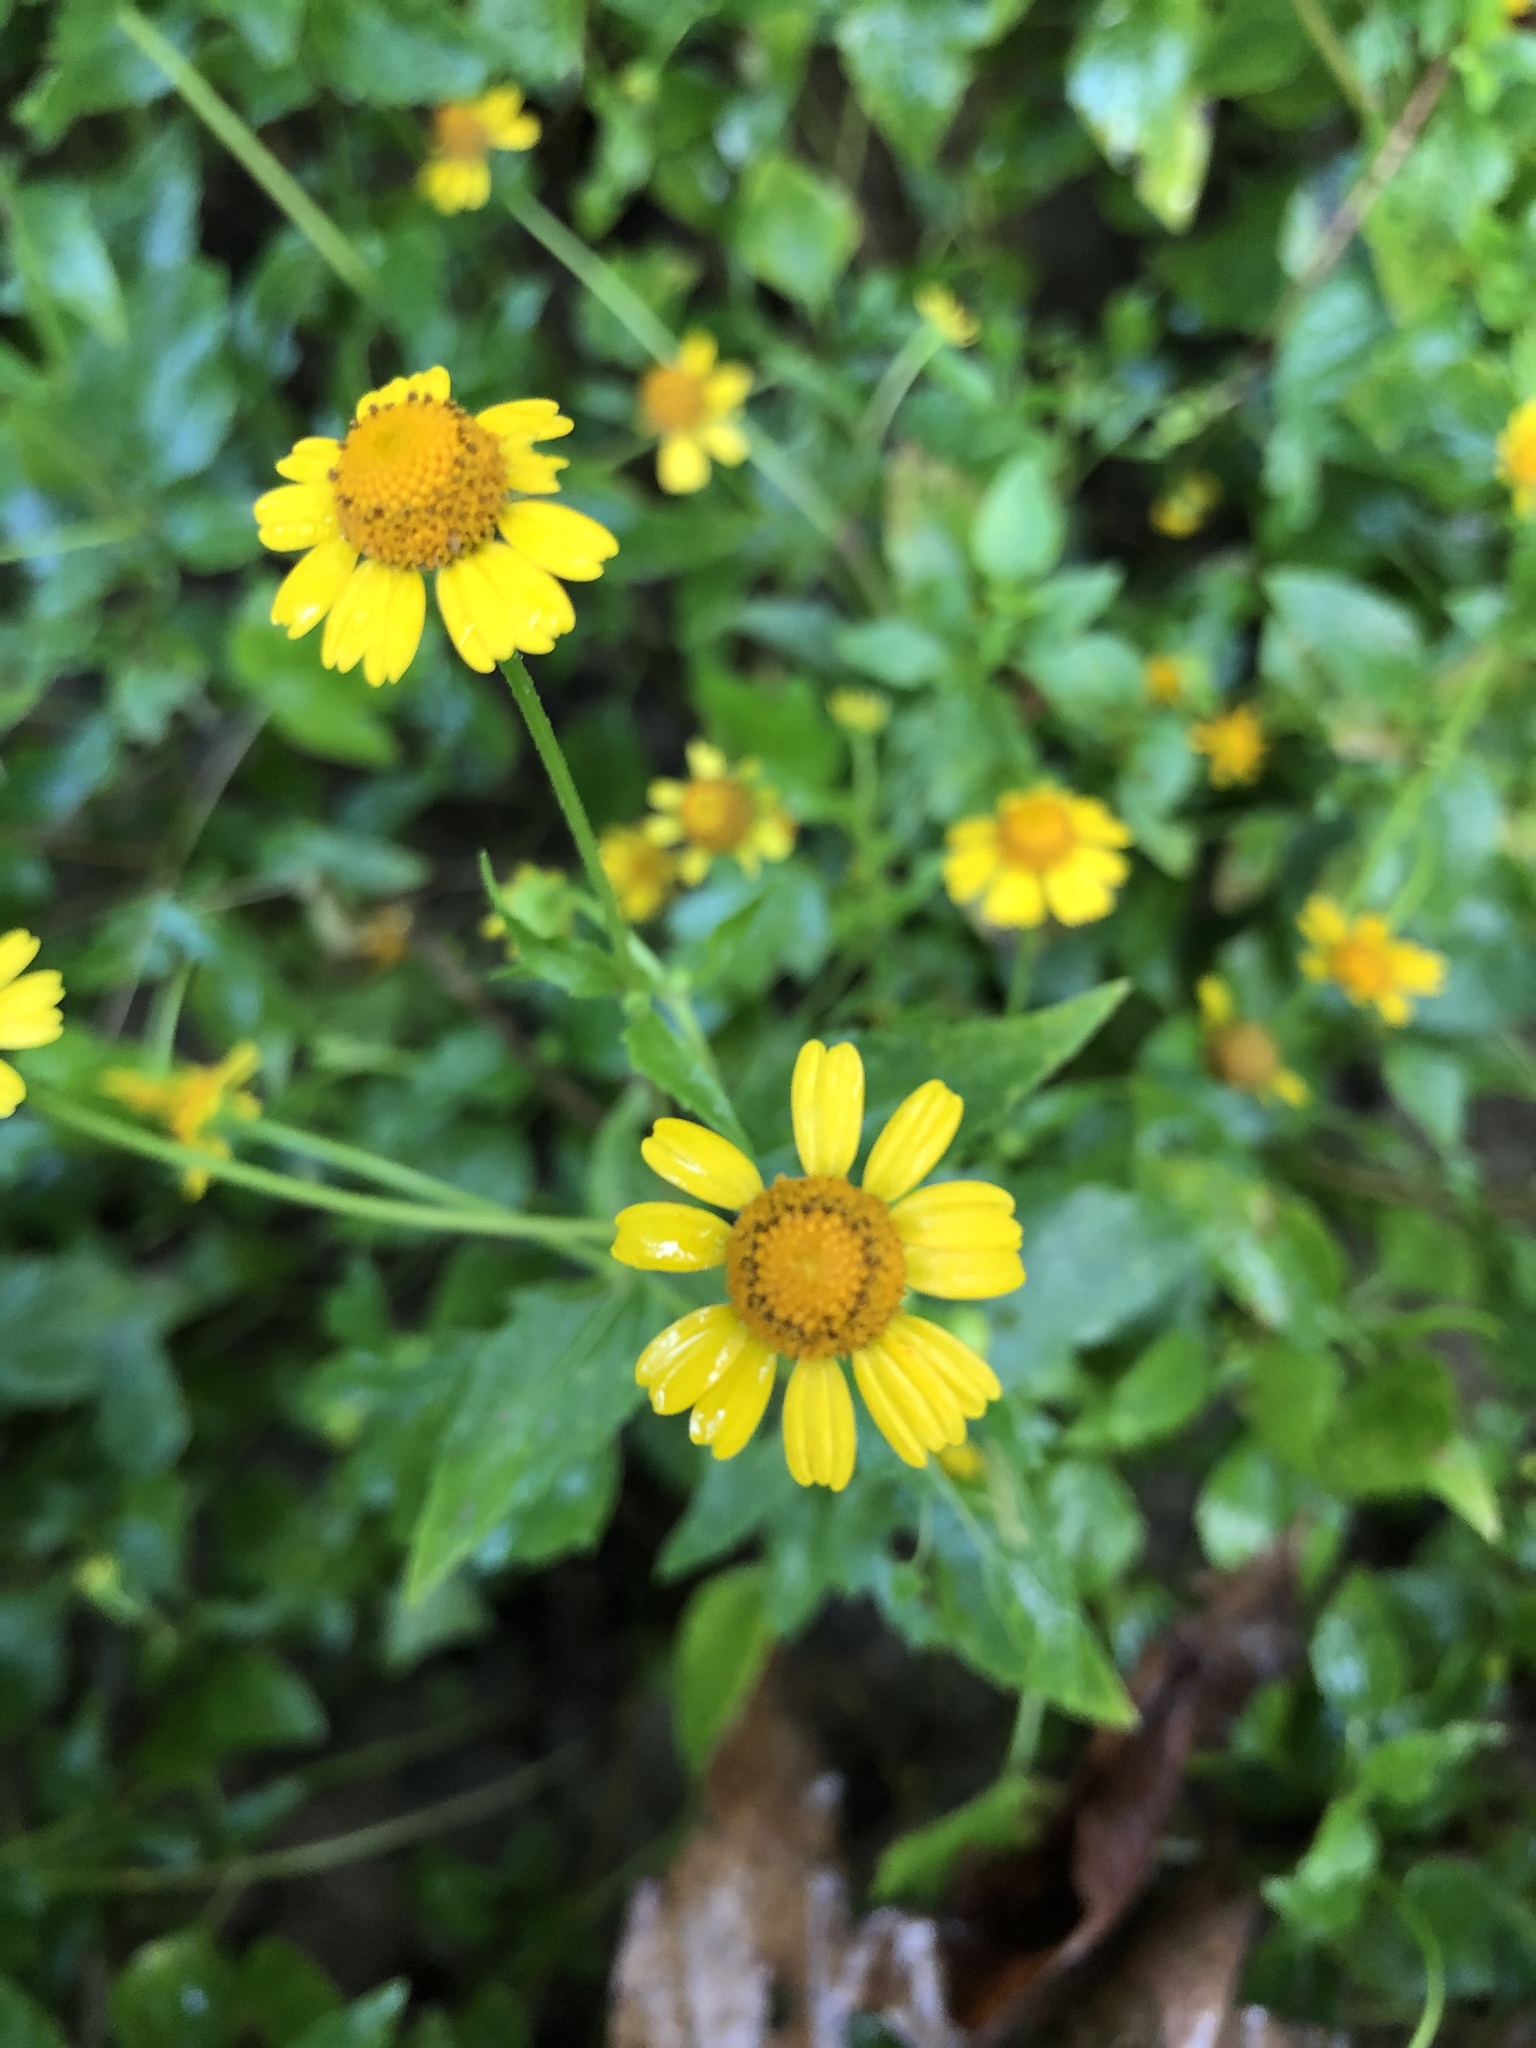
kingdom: Plantae
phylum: Tracheophyta
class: Magnoliopsida
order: Asterales
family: Asteraceae
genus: Acmella
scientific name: Acmella repens
